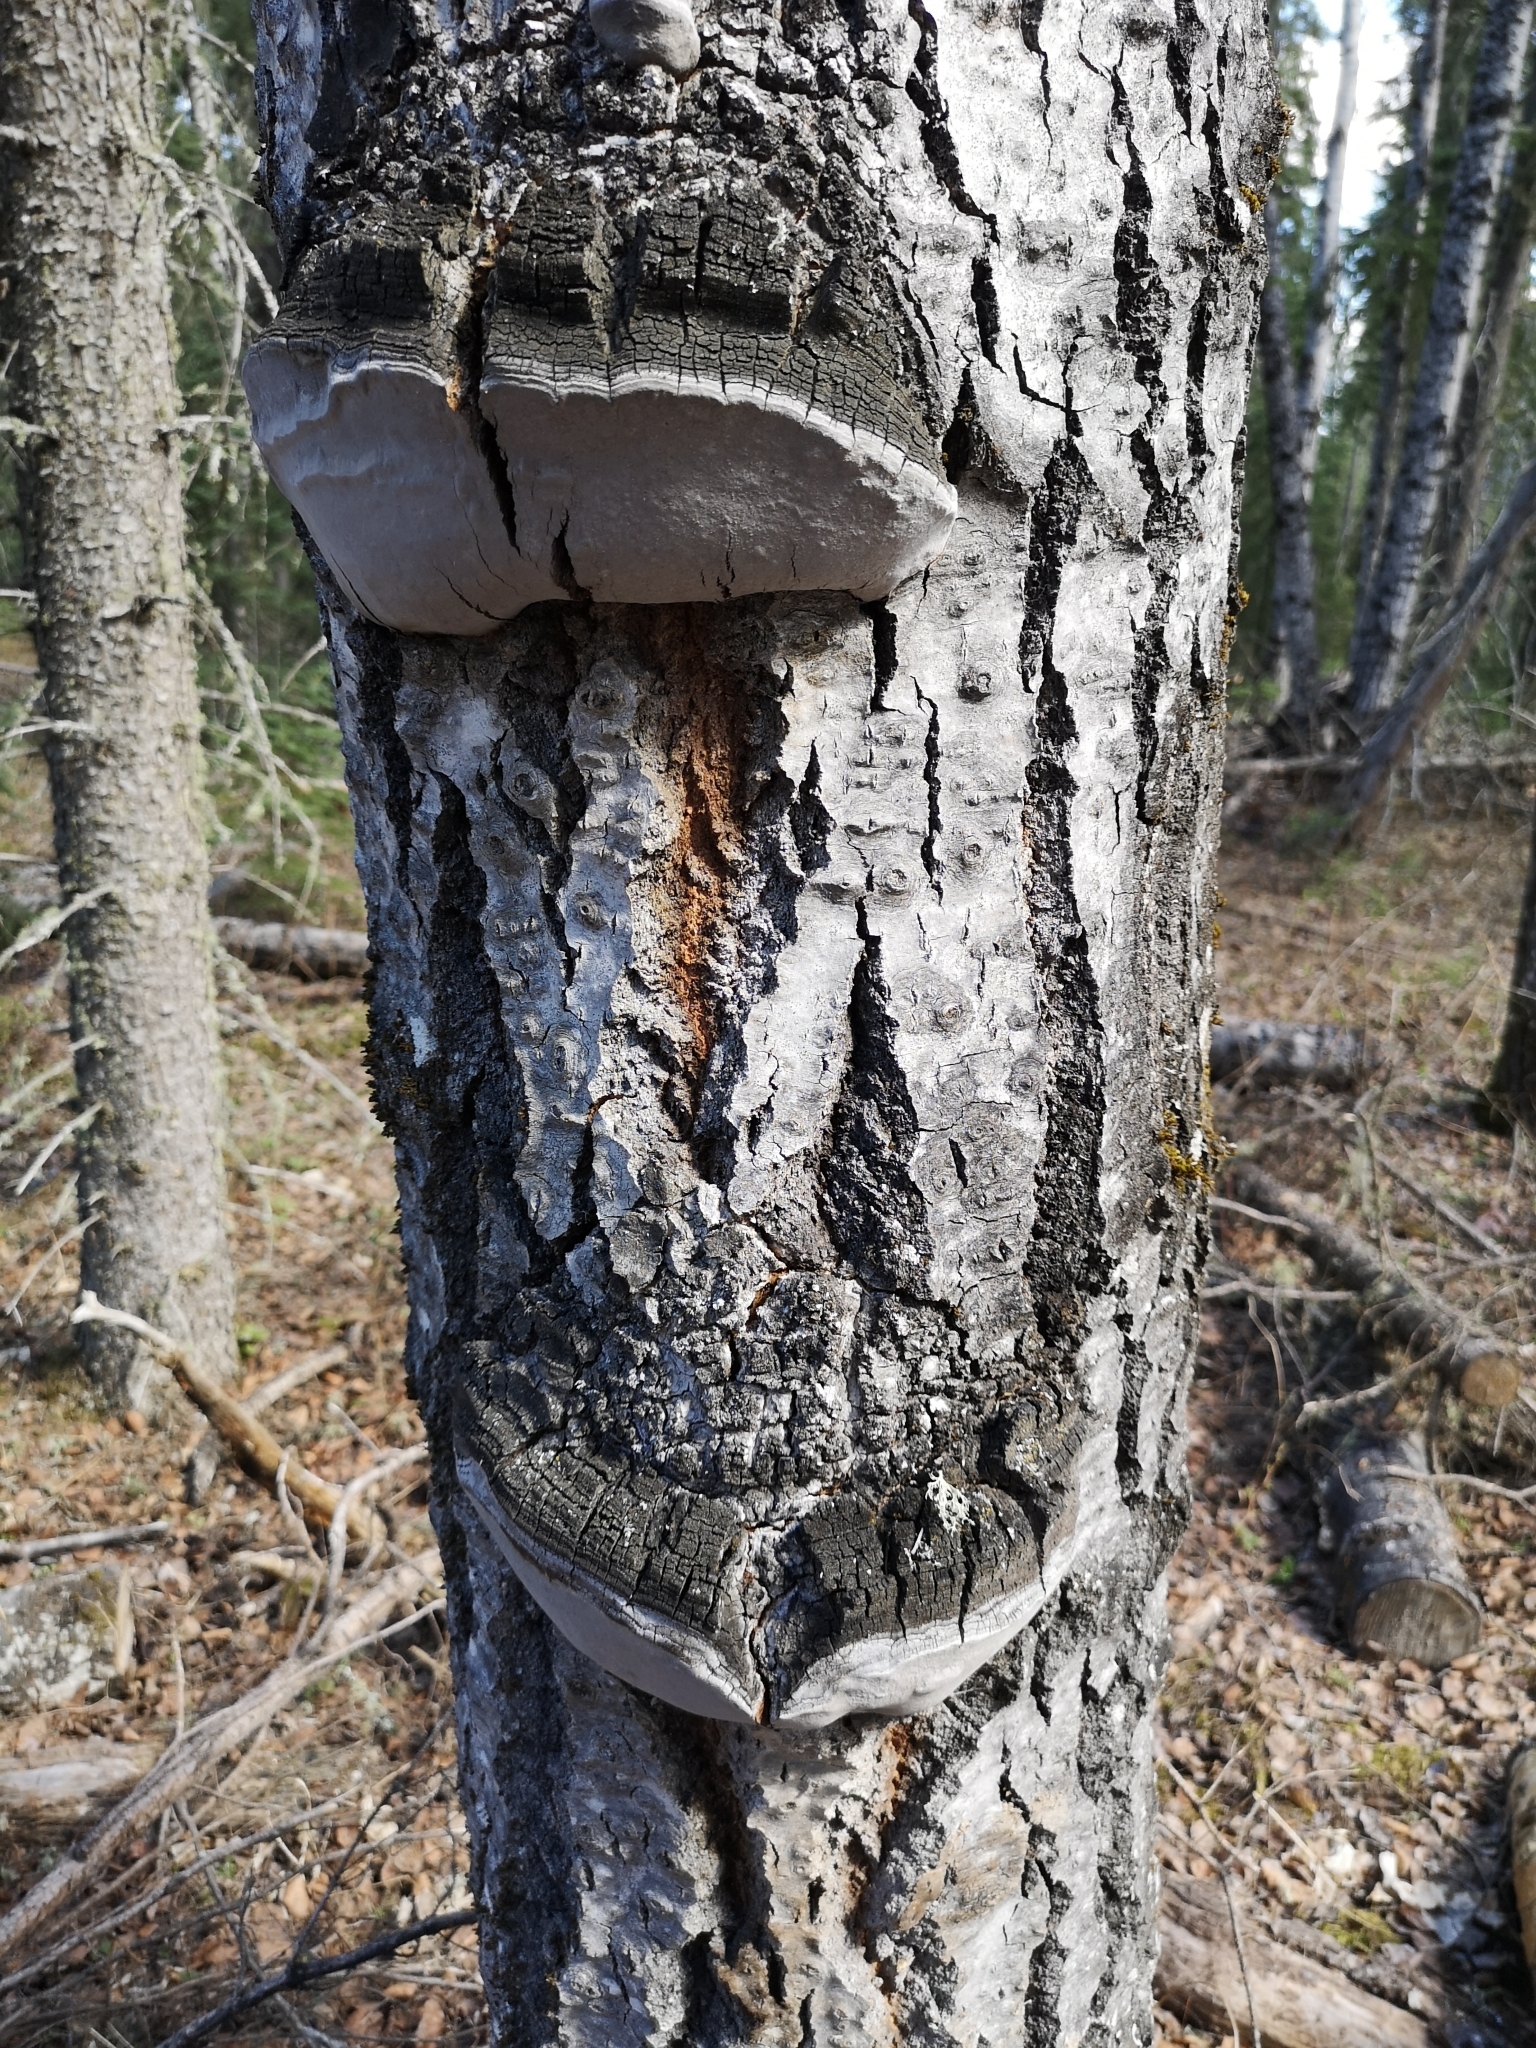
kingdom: Fungi
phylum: Basidiomycota
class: Agaricomycetes
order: Hymenochaetales
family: Hymenochaetaceae
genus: Phellinus
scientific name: Phellinus tremulae
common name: Aspen bracket
